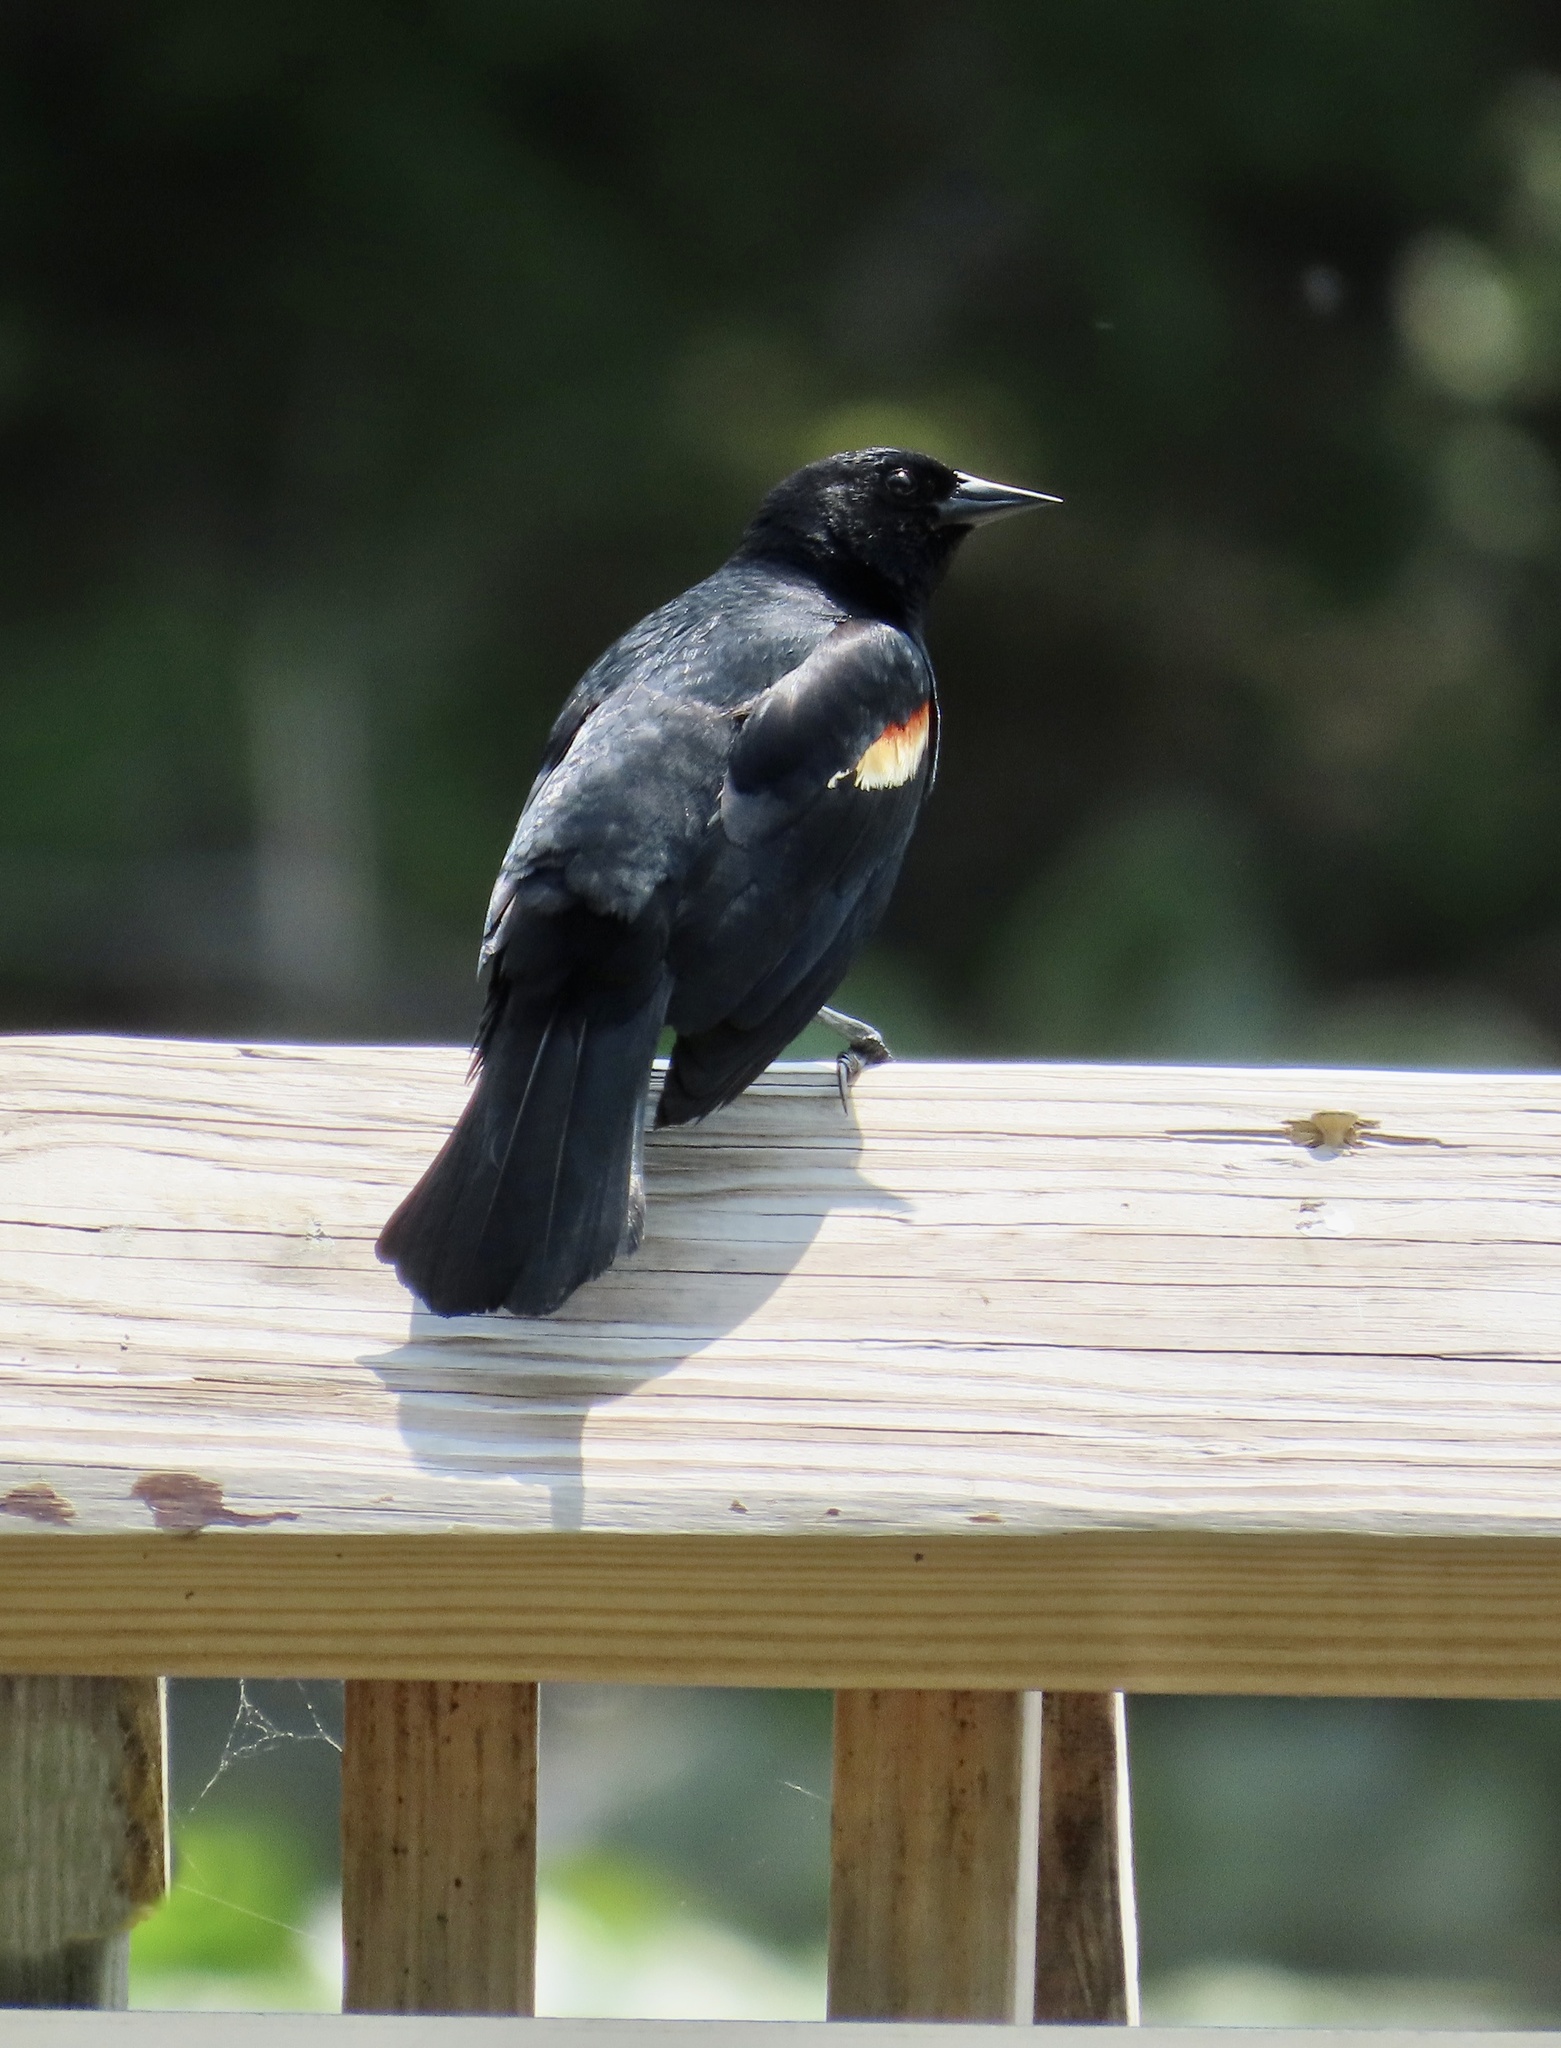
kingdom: Animalia
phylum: Chordata
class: Aves
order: Passeriformes
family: Icteridae
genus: Agelaius
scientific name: Agelaius phoeniceus
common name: Red-winged blackbird
